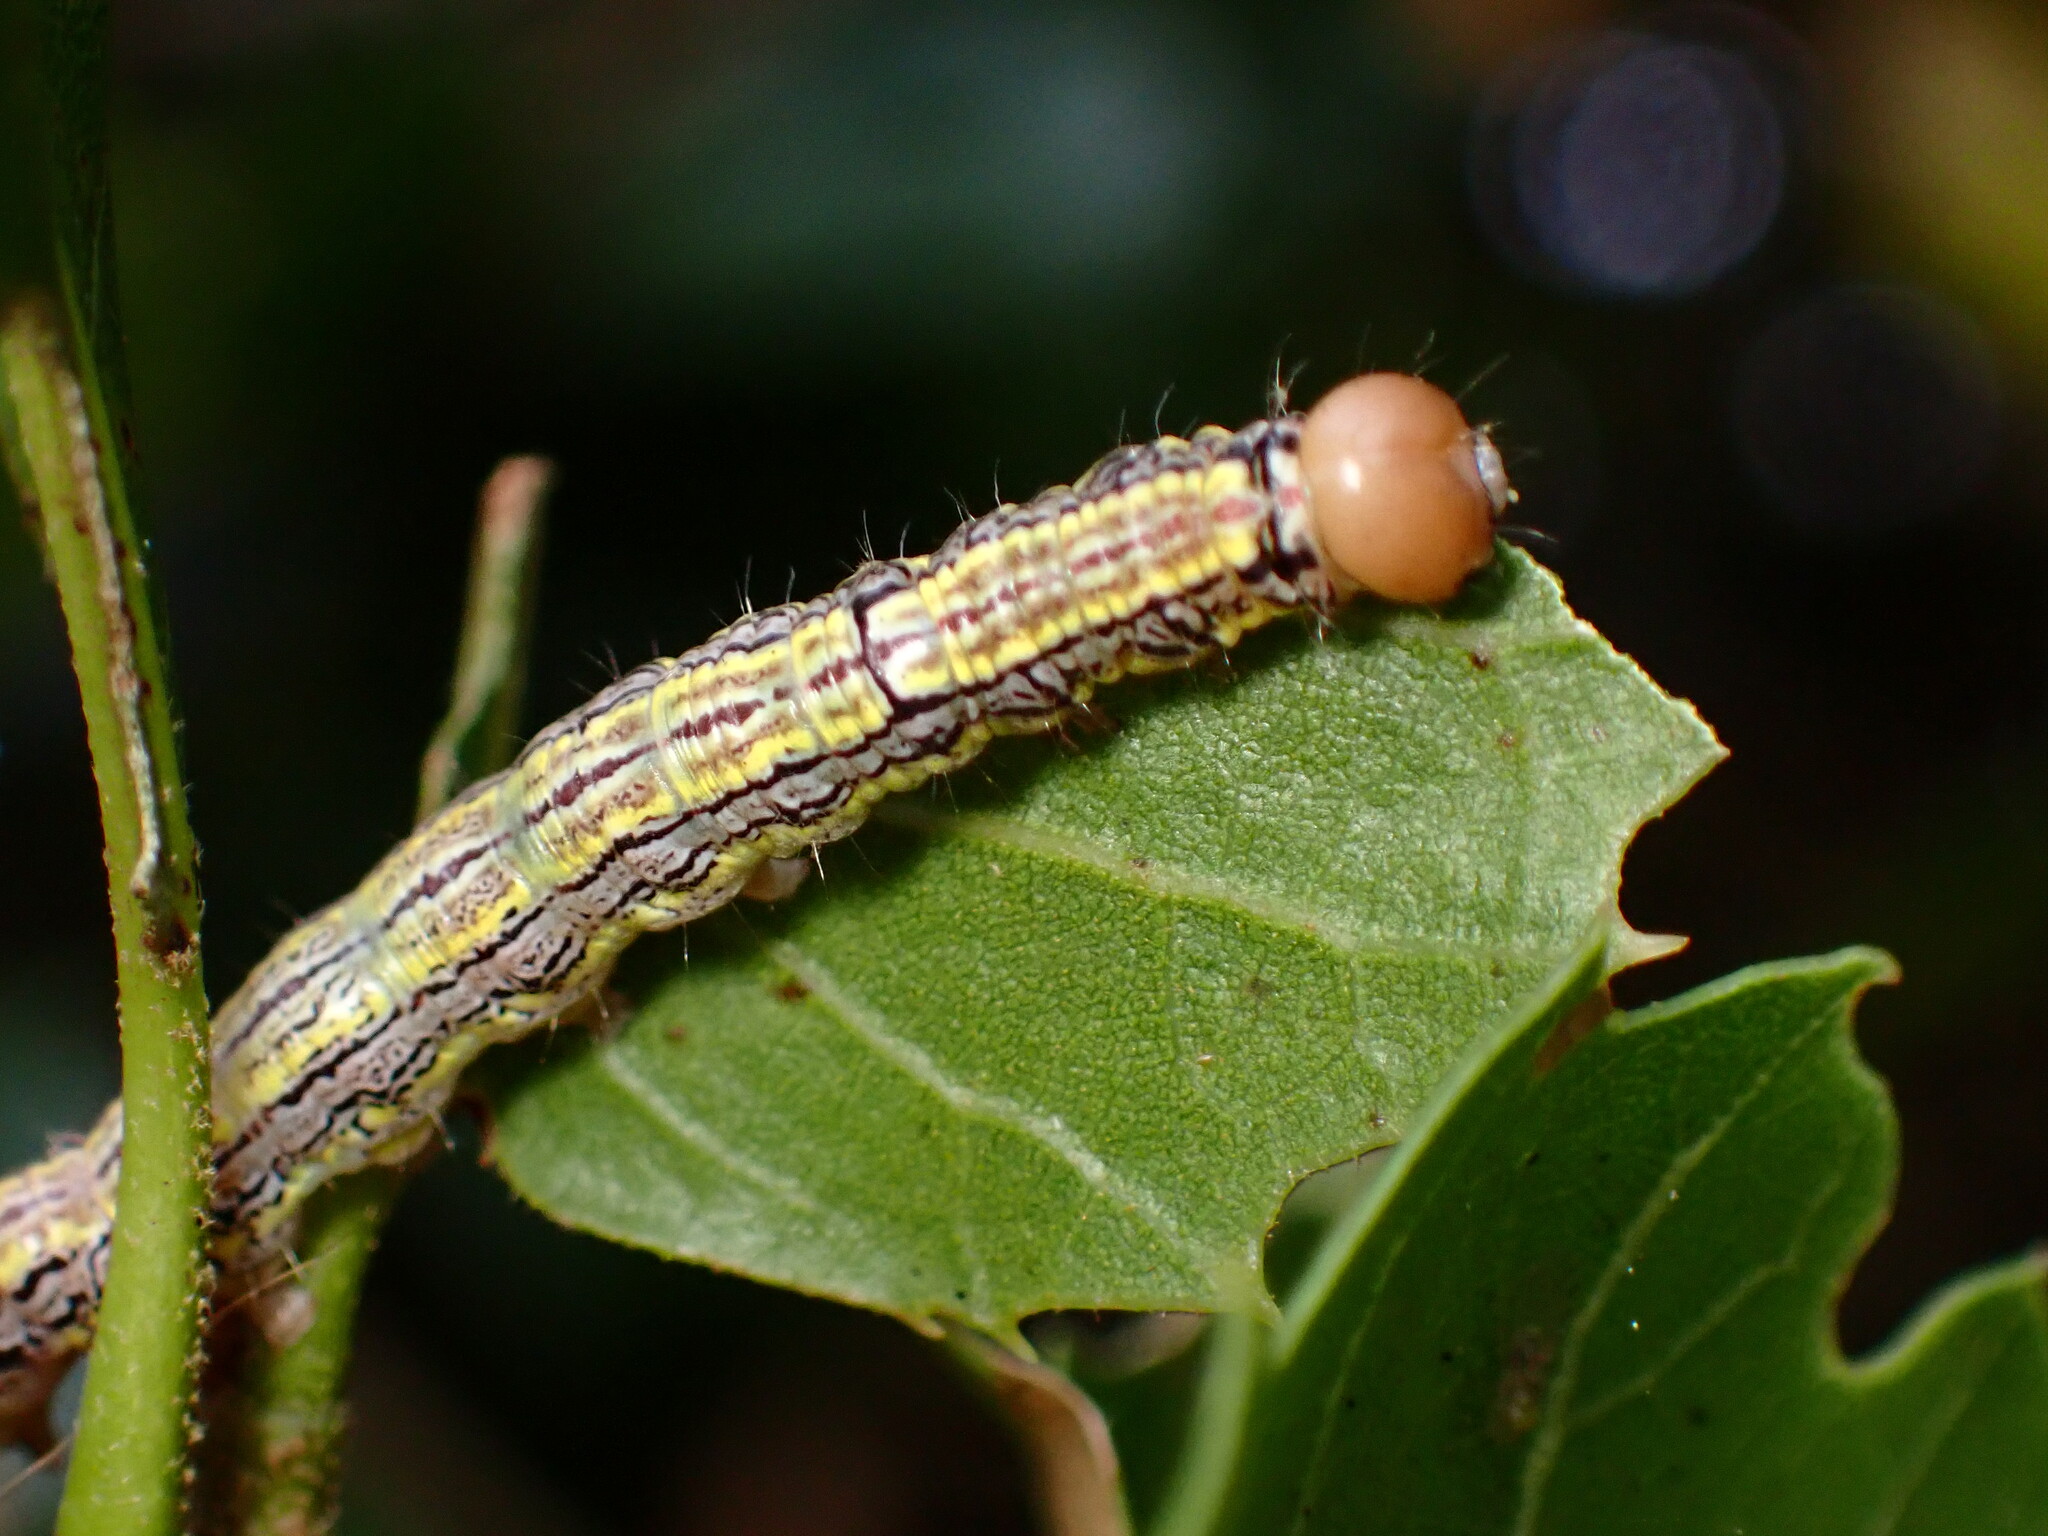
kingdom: Animalia
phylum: Arthropoda
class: Insecta
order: Lepidoptera
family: Notodontidae
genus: Phryganidia
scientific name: Phryganidia californica
